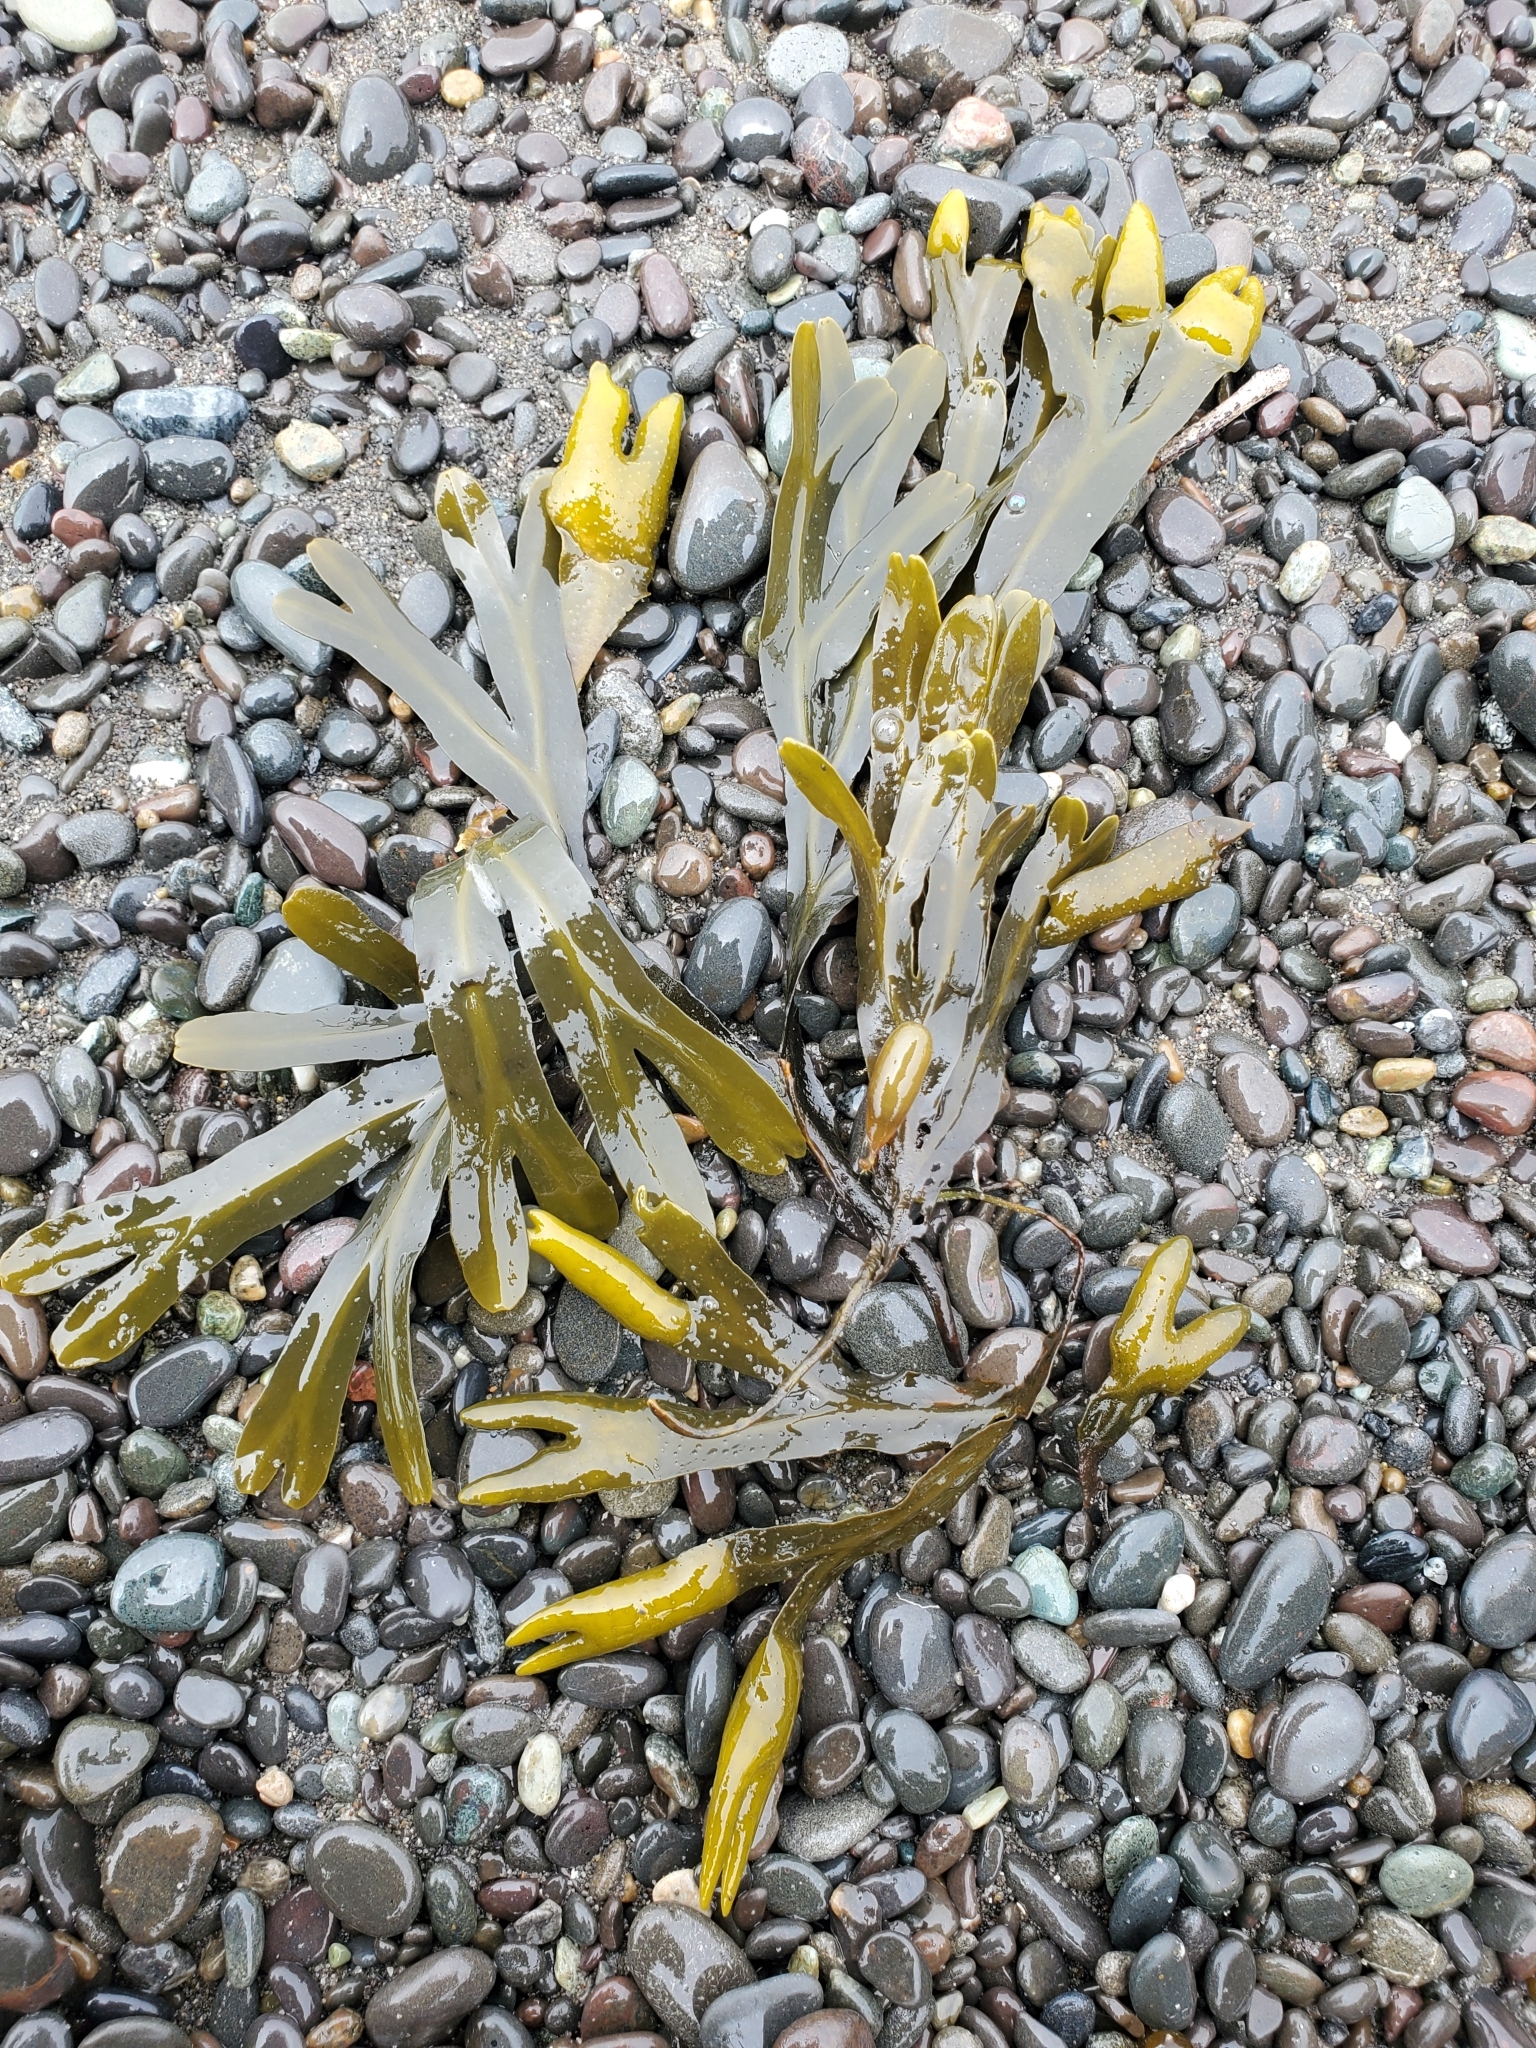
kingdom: Chromista
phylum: Ochrophyta
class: Phaeophyceae
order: Fucales
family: Fucaceae
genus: Fucus
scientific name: Fucus distichus
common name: Rockweed
